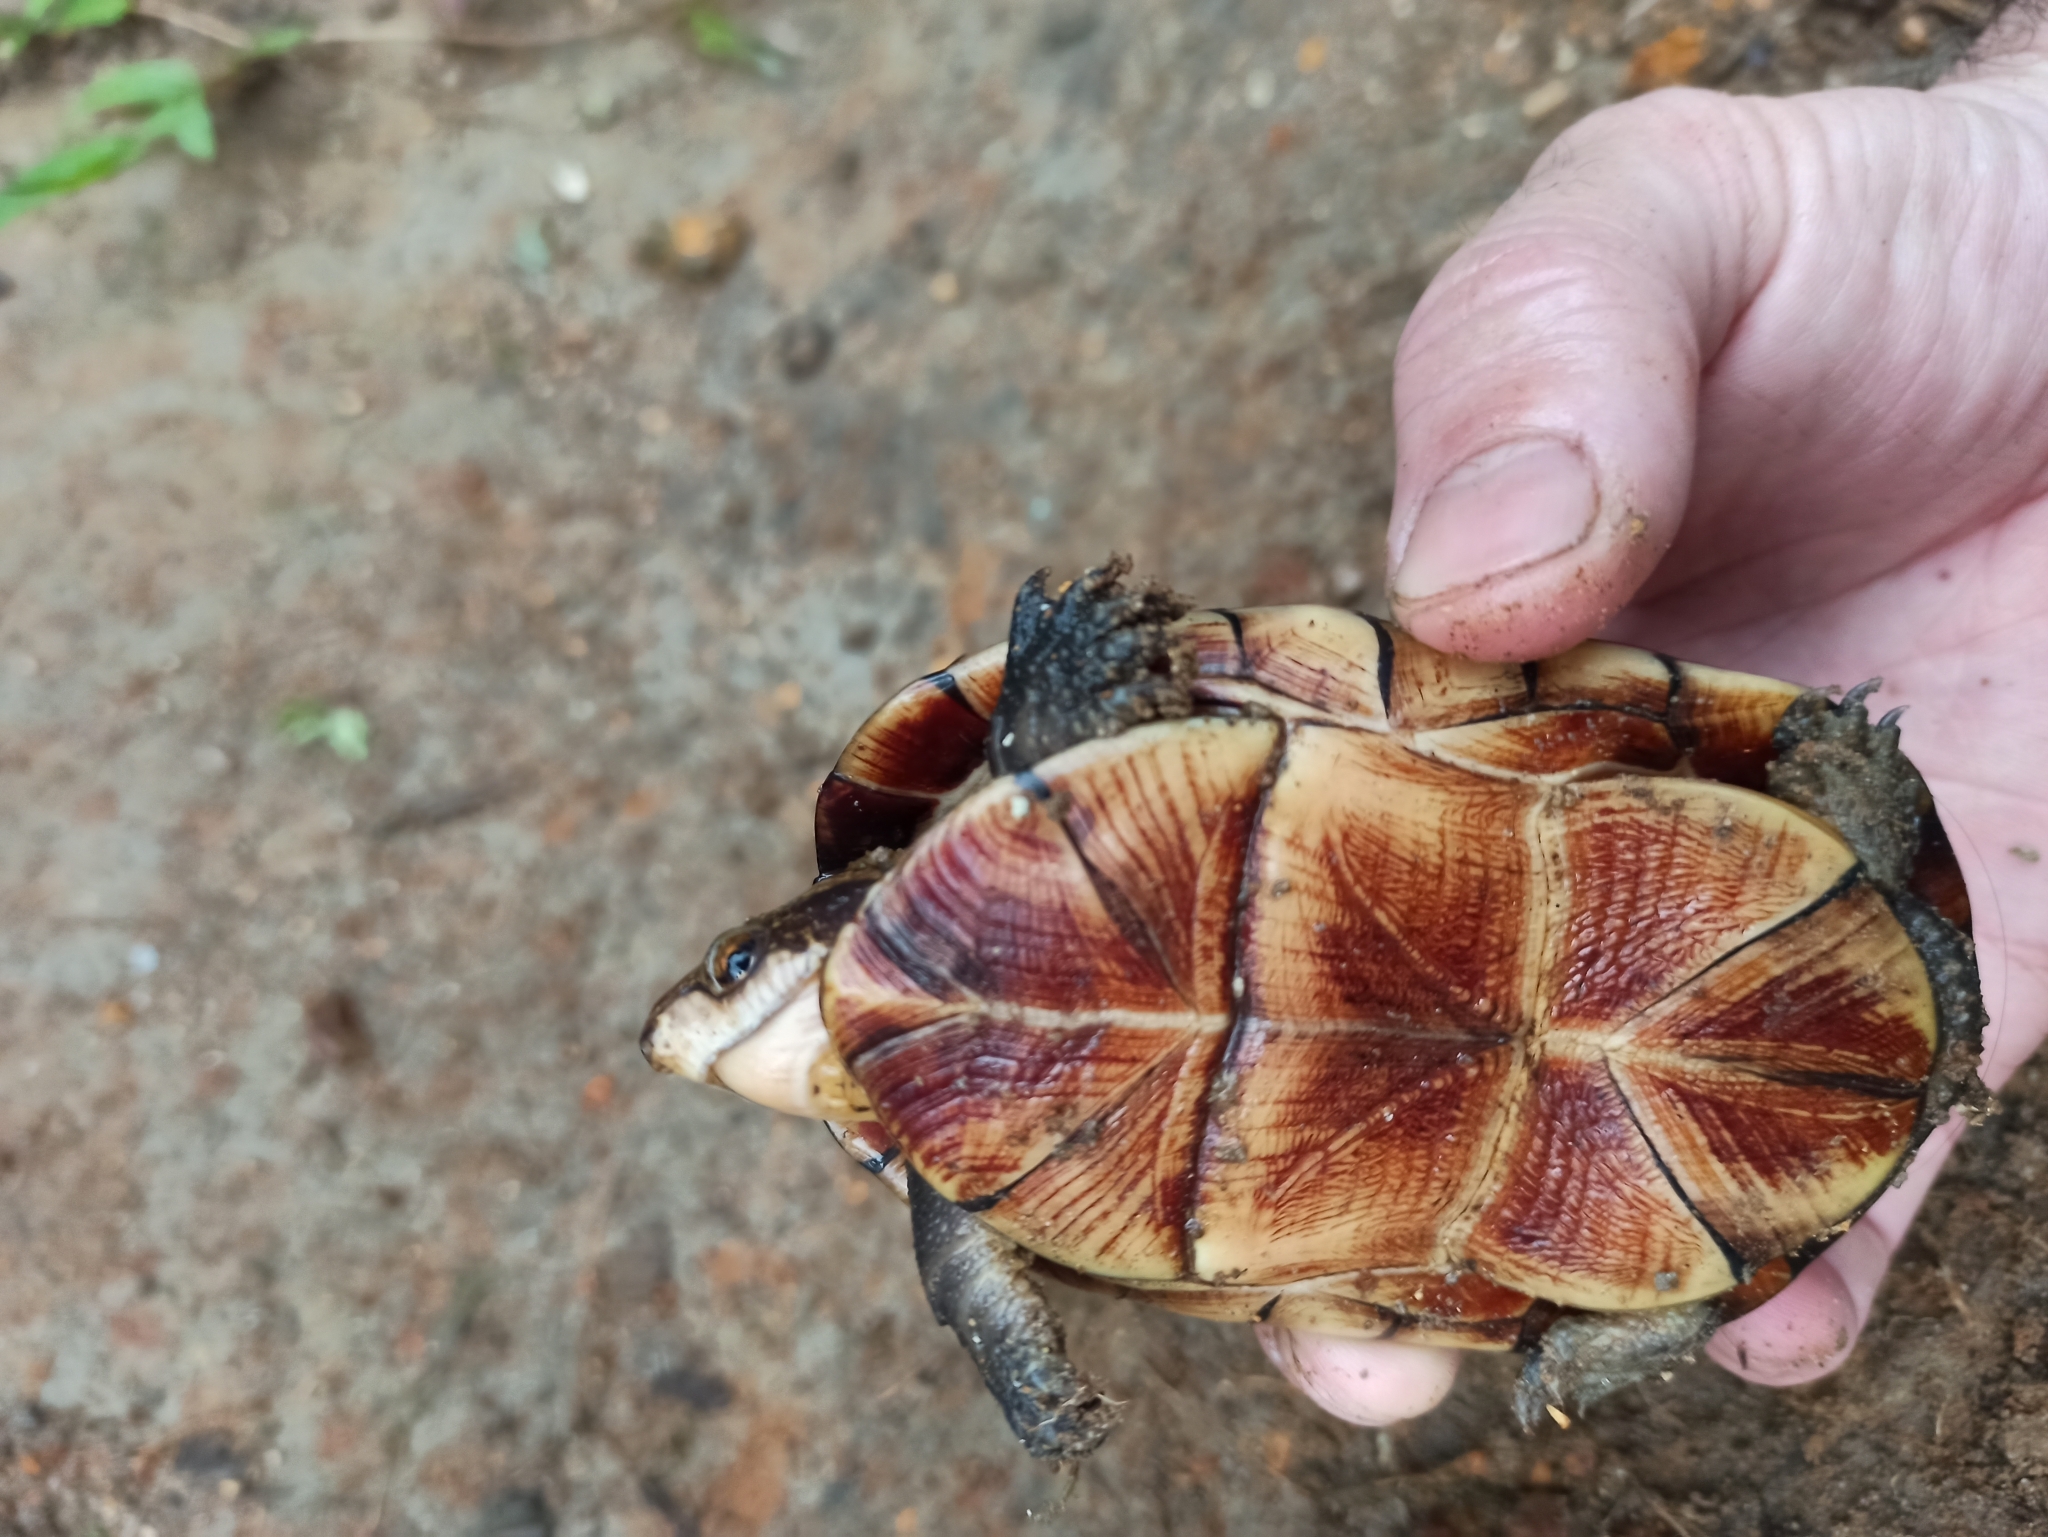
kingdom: Animalia
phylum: Chordata
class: Testudines
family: Kinosternidae
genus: Kinosternon
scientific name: Kinosternon leucostomum
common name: White-lipped mud turtle
